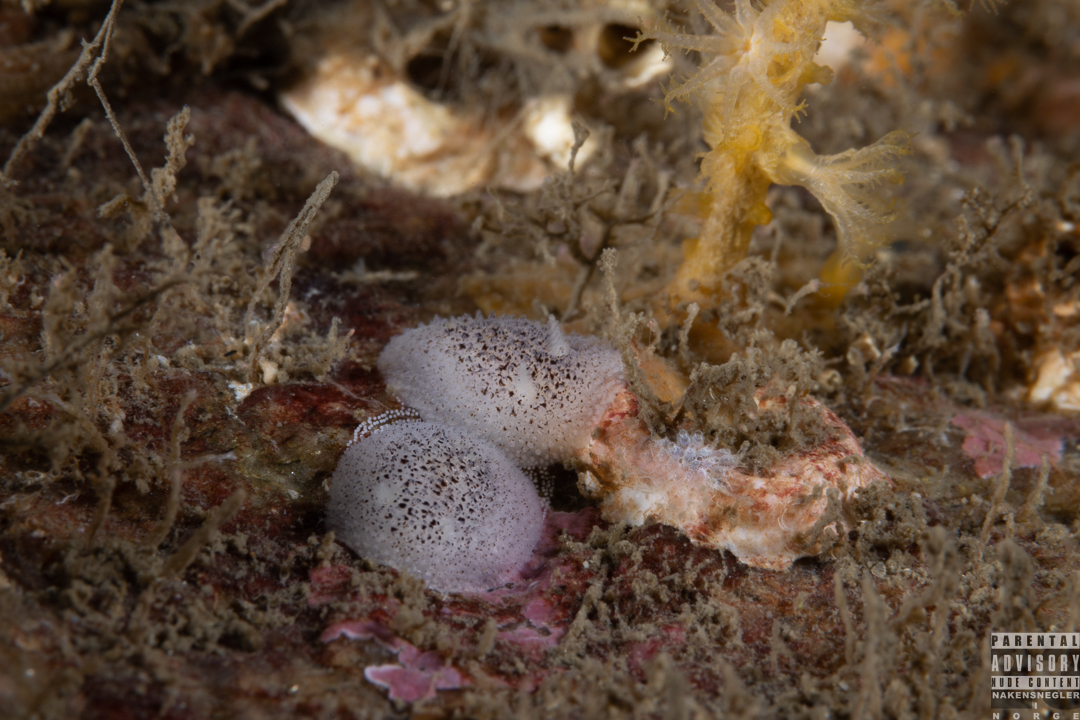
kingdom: Animalia
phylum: Mollusca
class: Gastropoda
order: Nudibranchia
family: Onchidorididae
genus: Atalodoris
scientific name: Atalodoris pusilla
